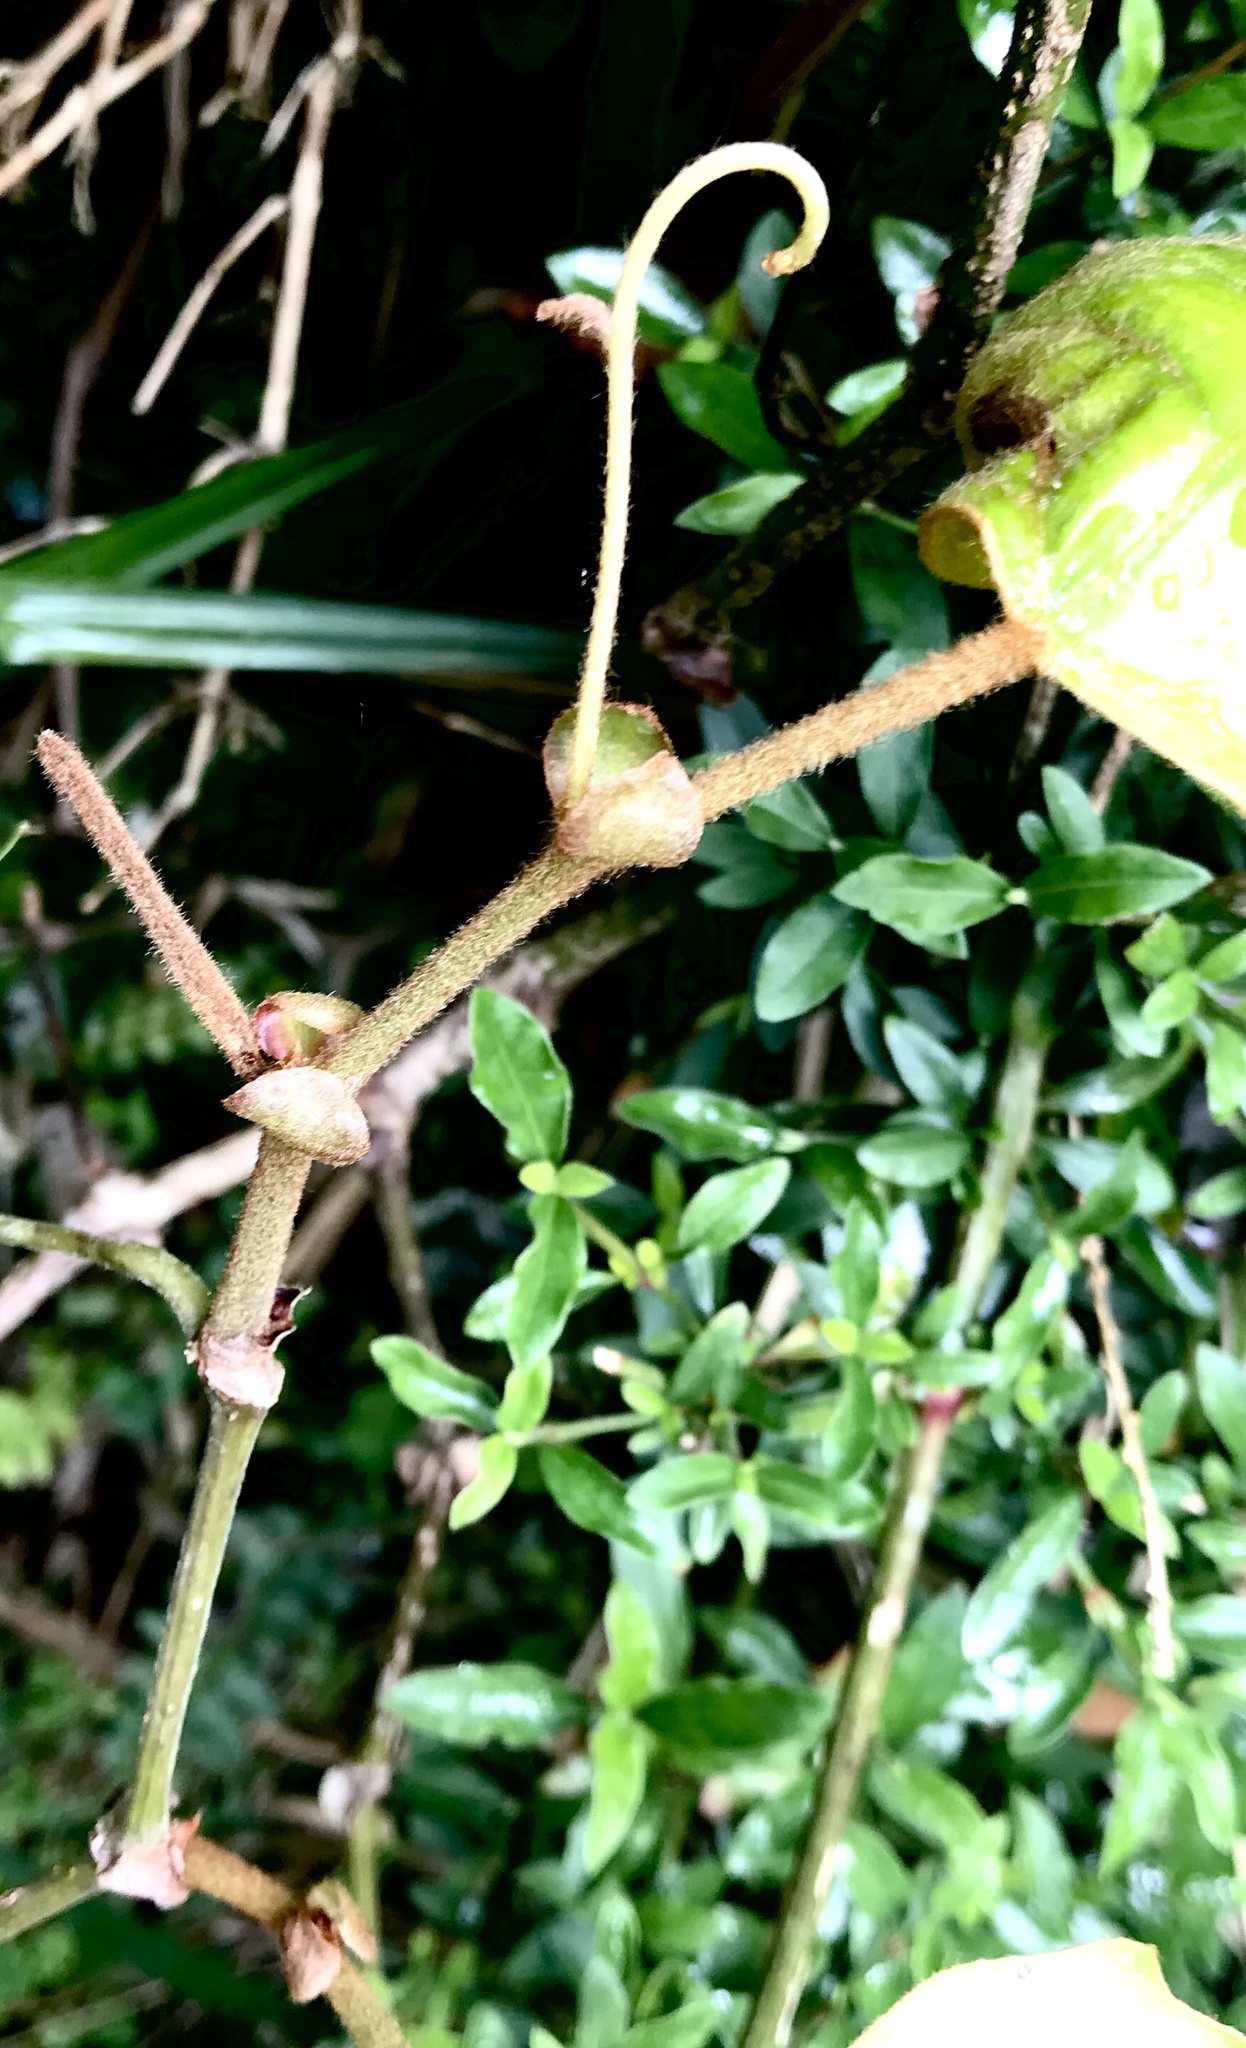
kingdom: Plantae
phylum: Tracheophyta
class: Magnoliopsida
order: Vitales
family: Vitaceae
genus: Rhoicissus
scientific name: Rhoicissus tomentosa
